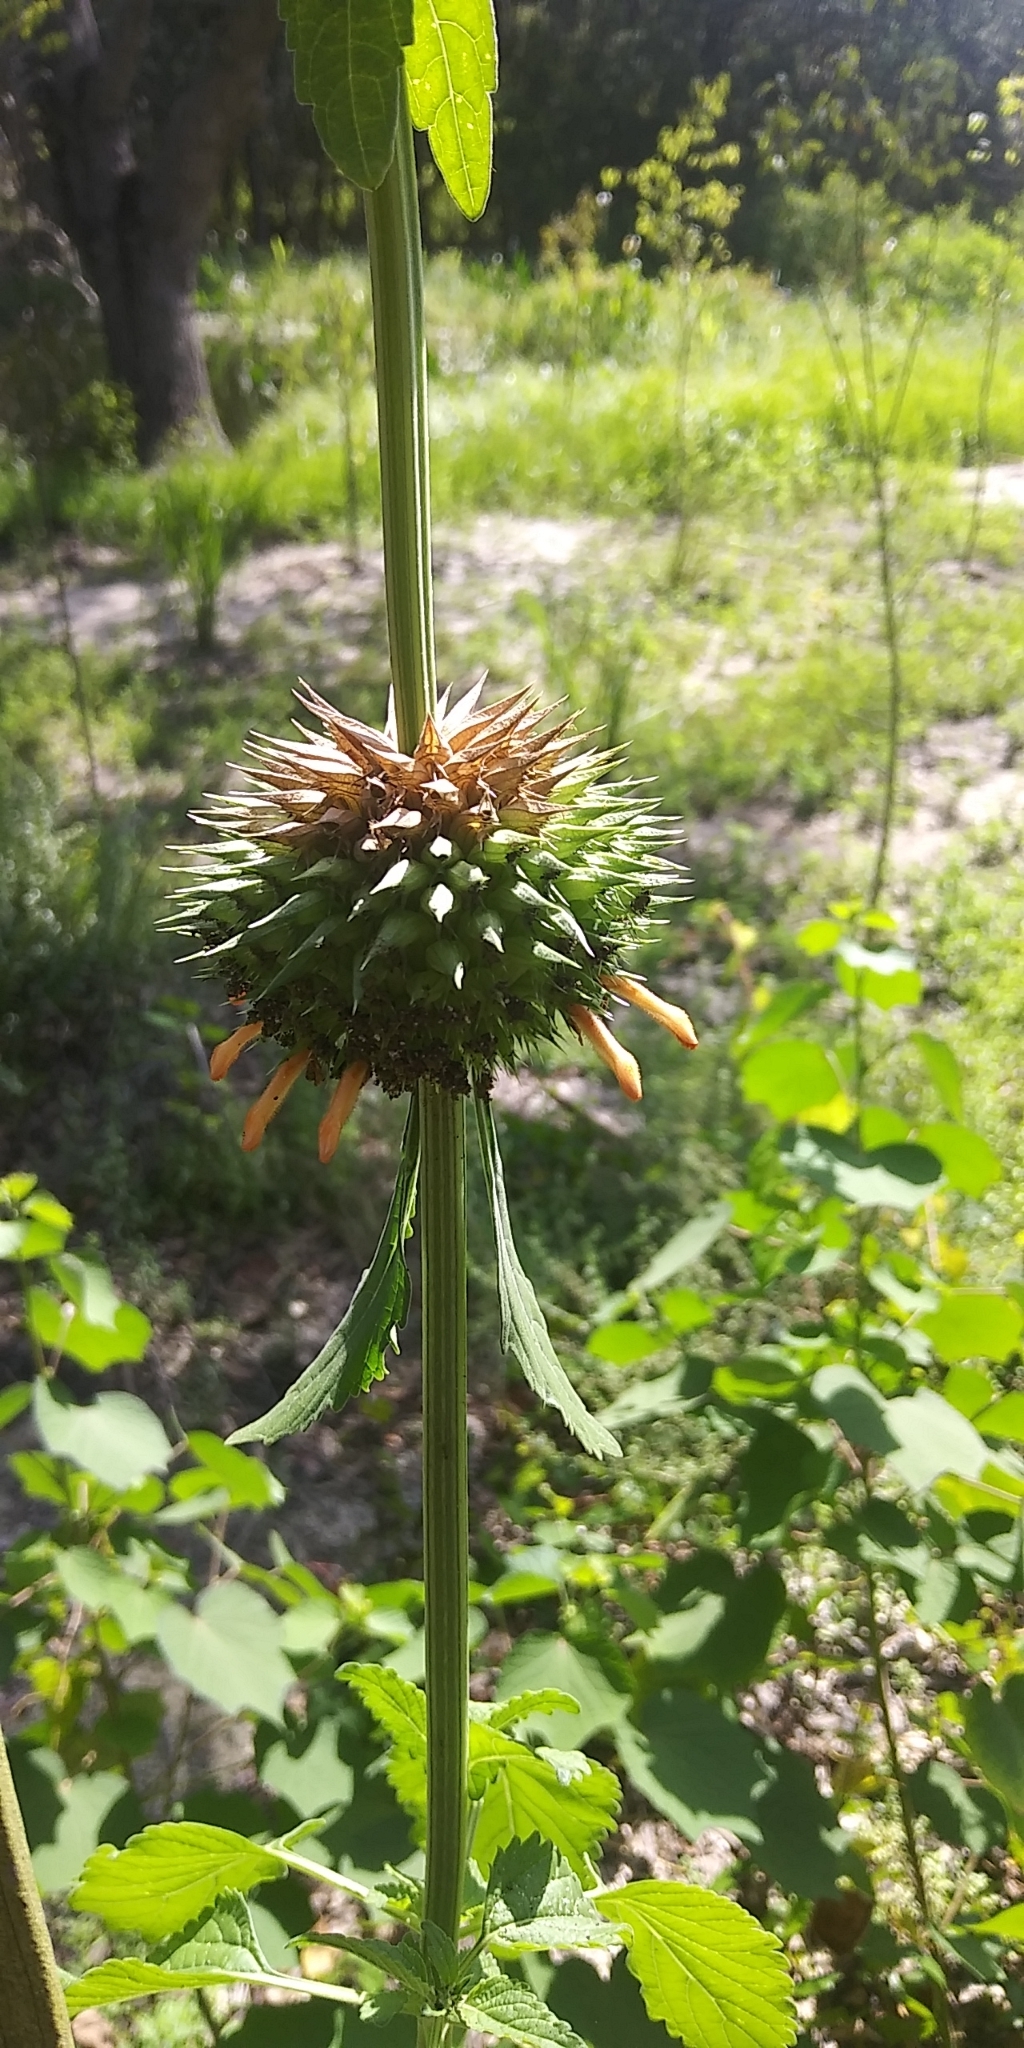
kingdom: Plantae
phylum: Tracheophyta
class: Magnoliopsida
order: Lamiales
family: Lamiaceae
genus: Leonotis
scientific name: Leonotis nepetifolia
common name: Christmas candlestick
